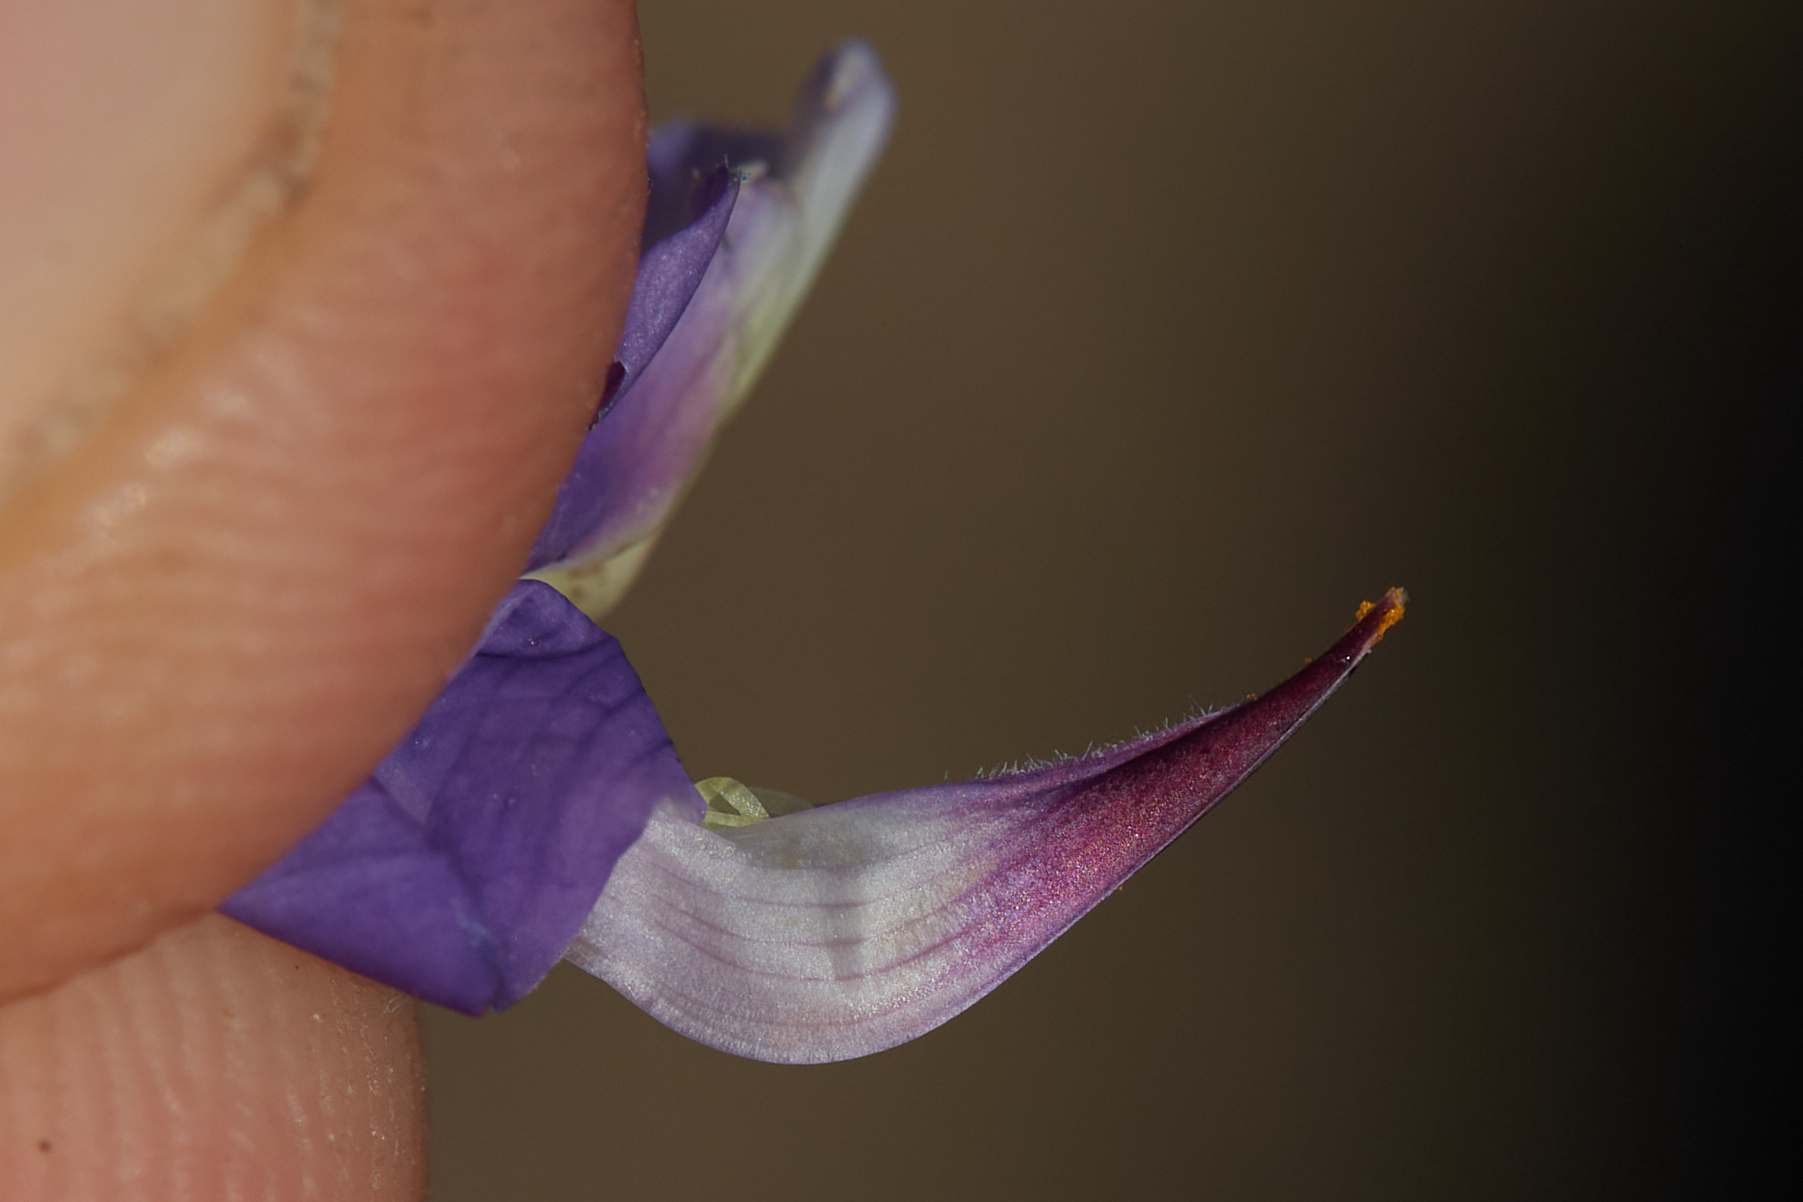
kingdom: Plantae
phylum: Tracheophyta
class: Magnoliopsida
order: Fabales
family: Fabaceae
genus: Lupinus
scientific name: Lupinus albifrons
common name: Foothill lupine
